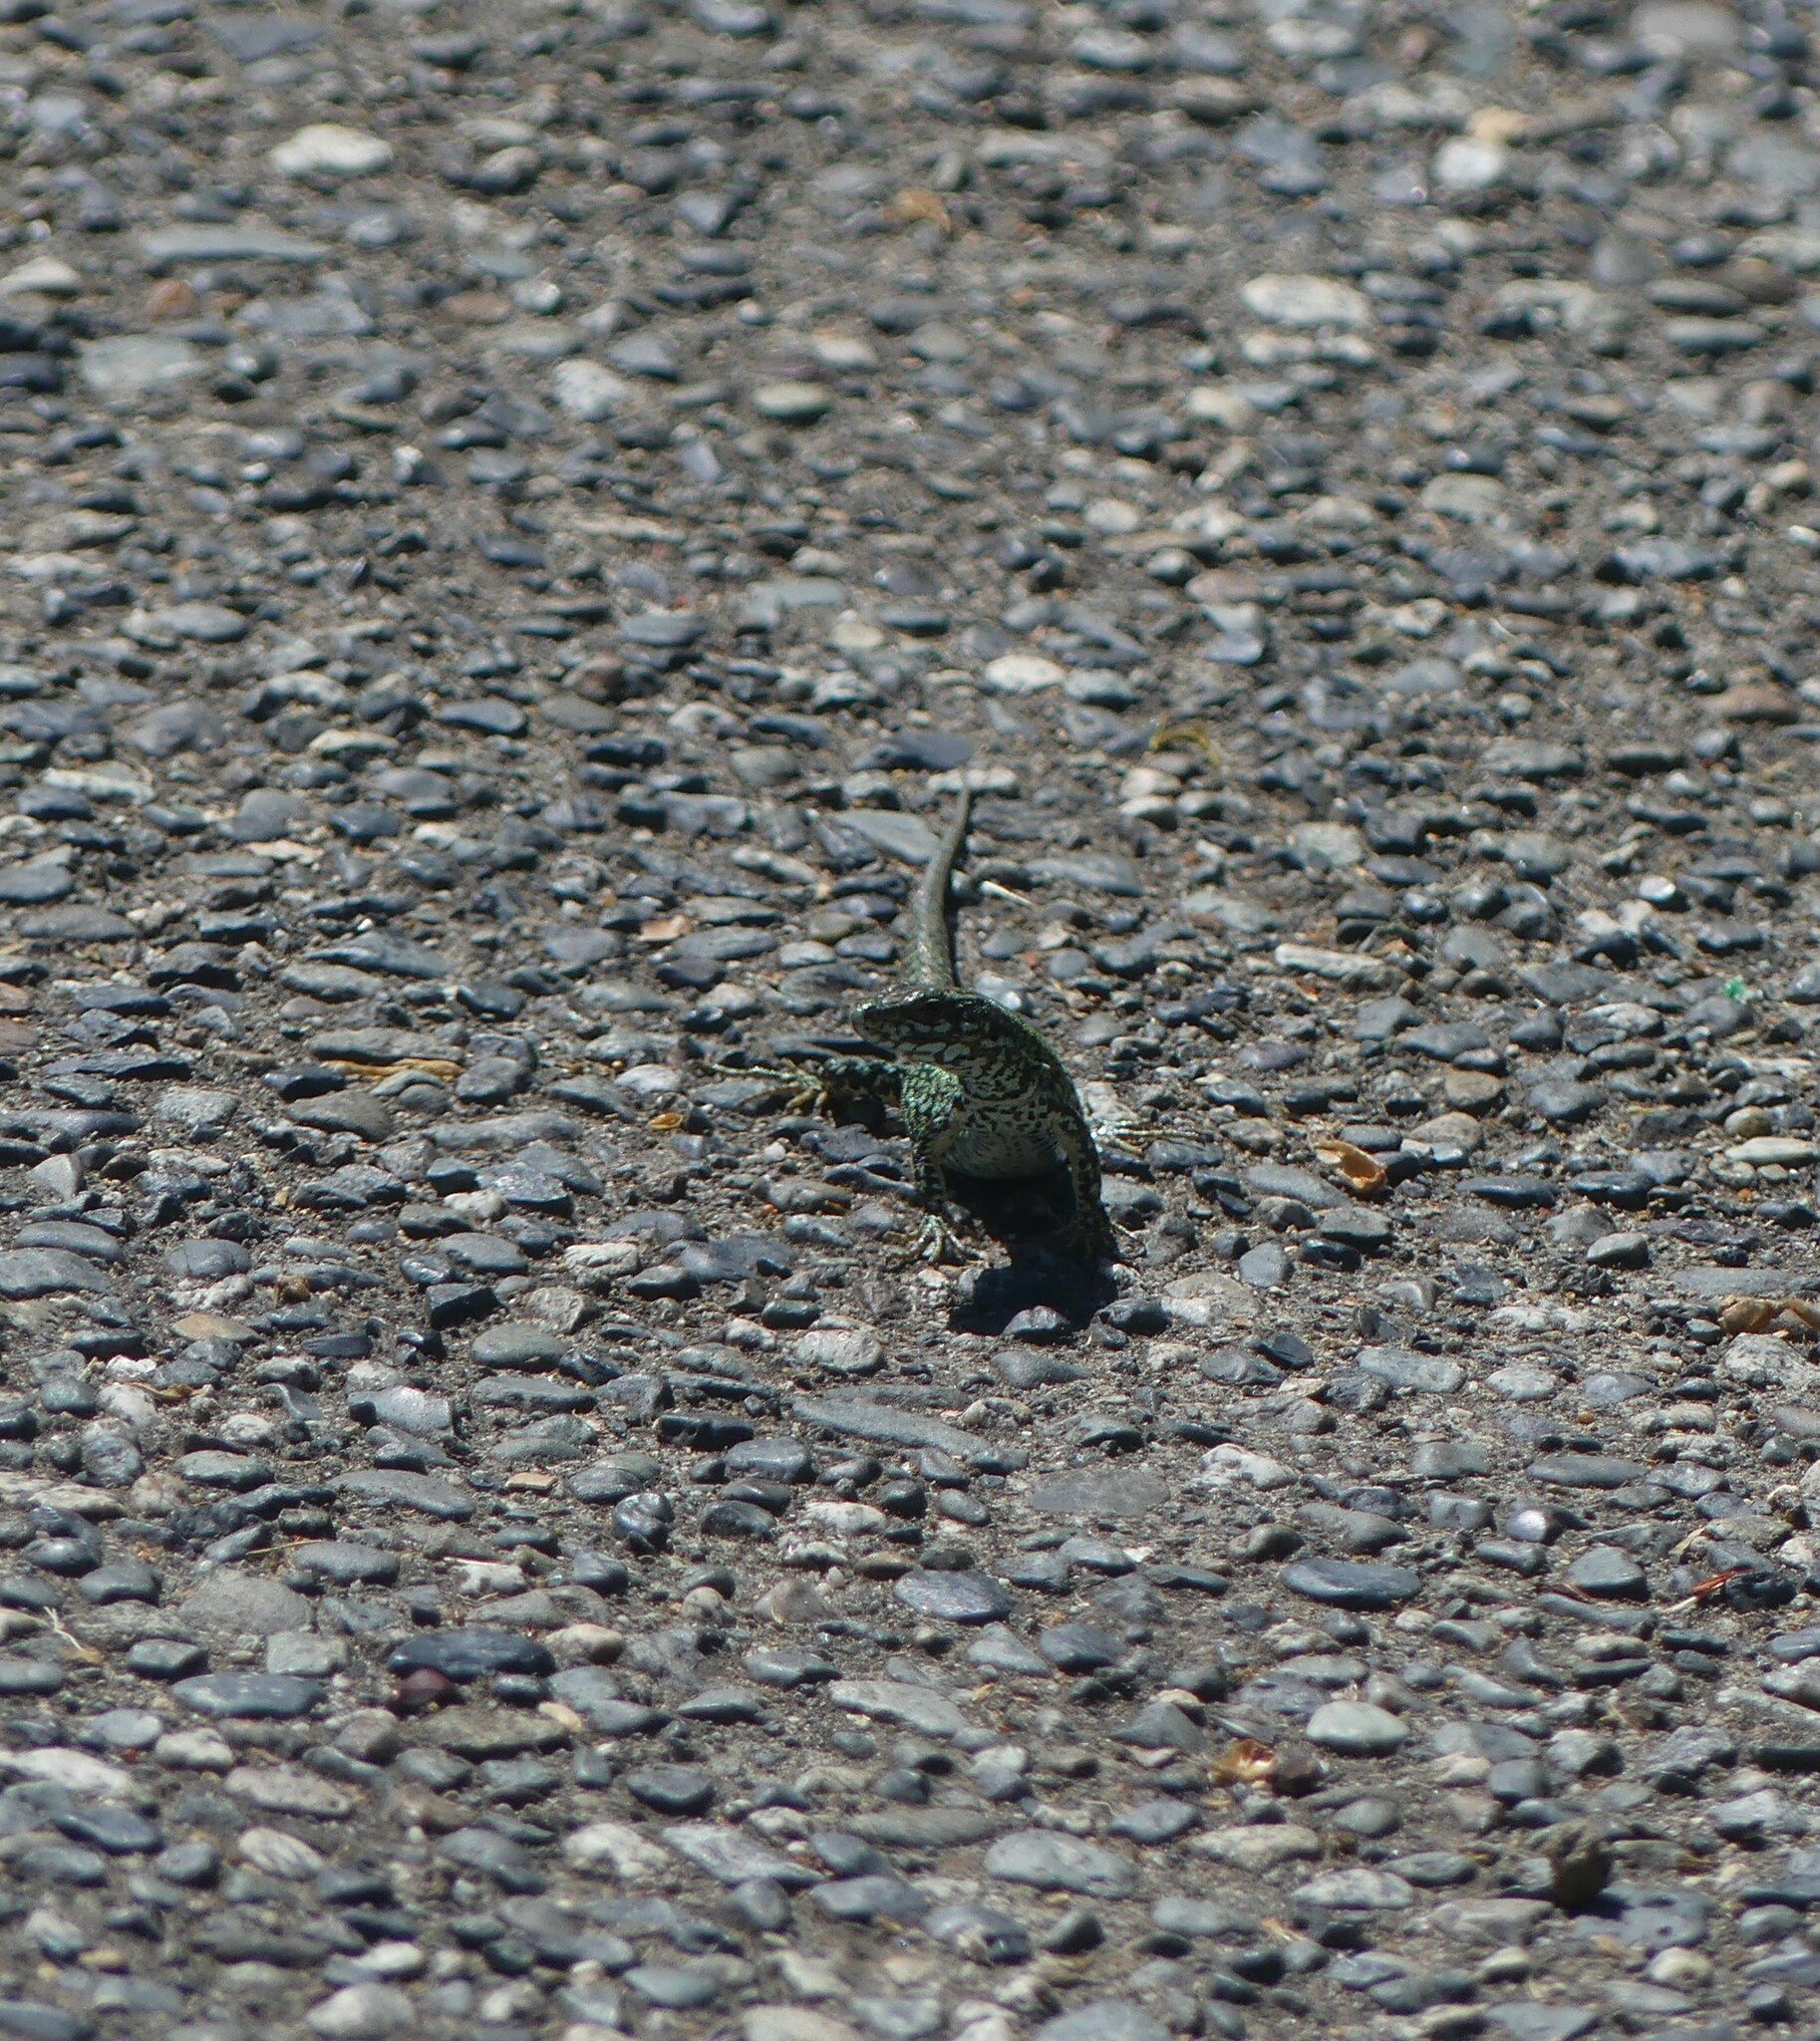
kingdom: Animalia
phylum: Chordata
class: Squamata
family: Lacertidae
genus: Podarcis
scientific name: Podarcis muralis
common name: Common wall lizard
